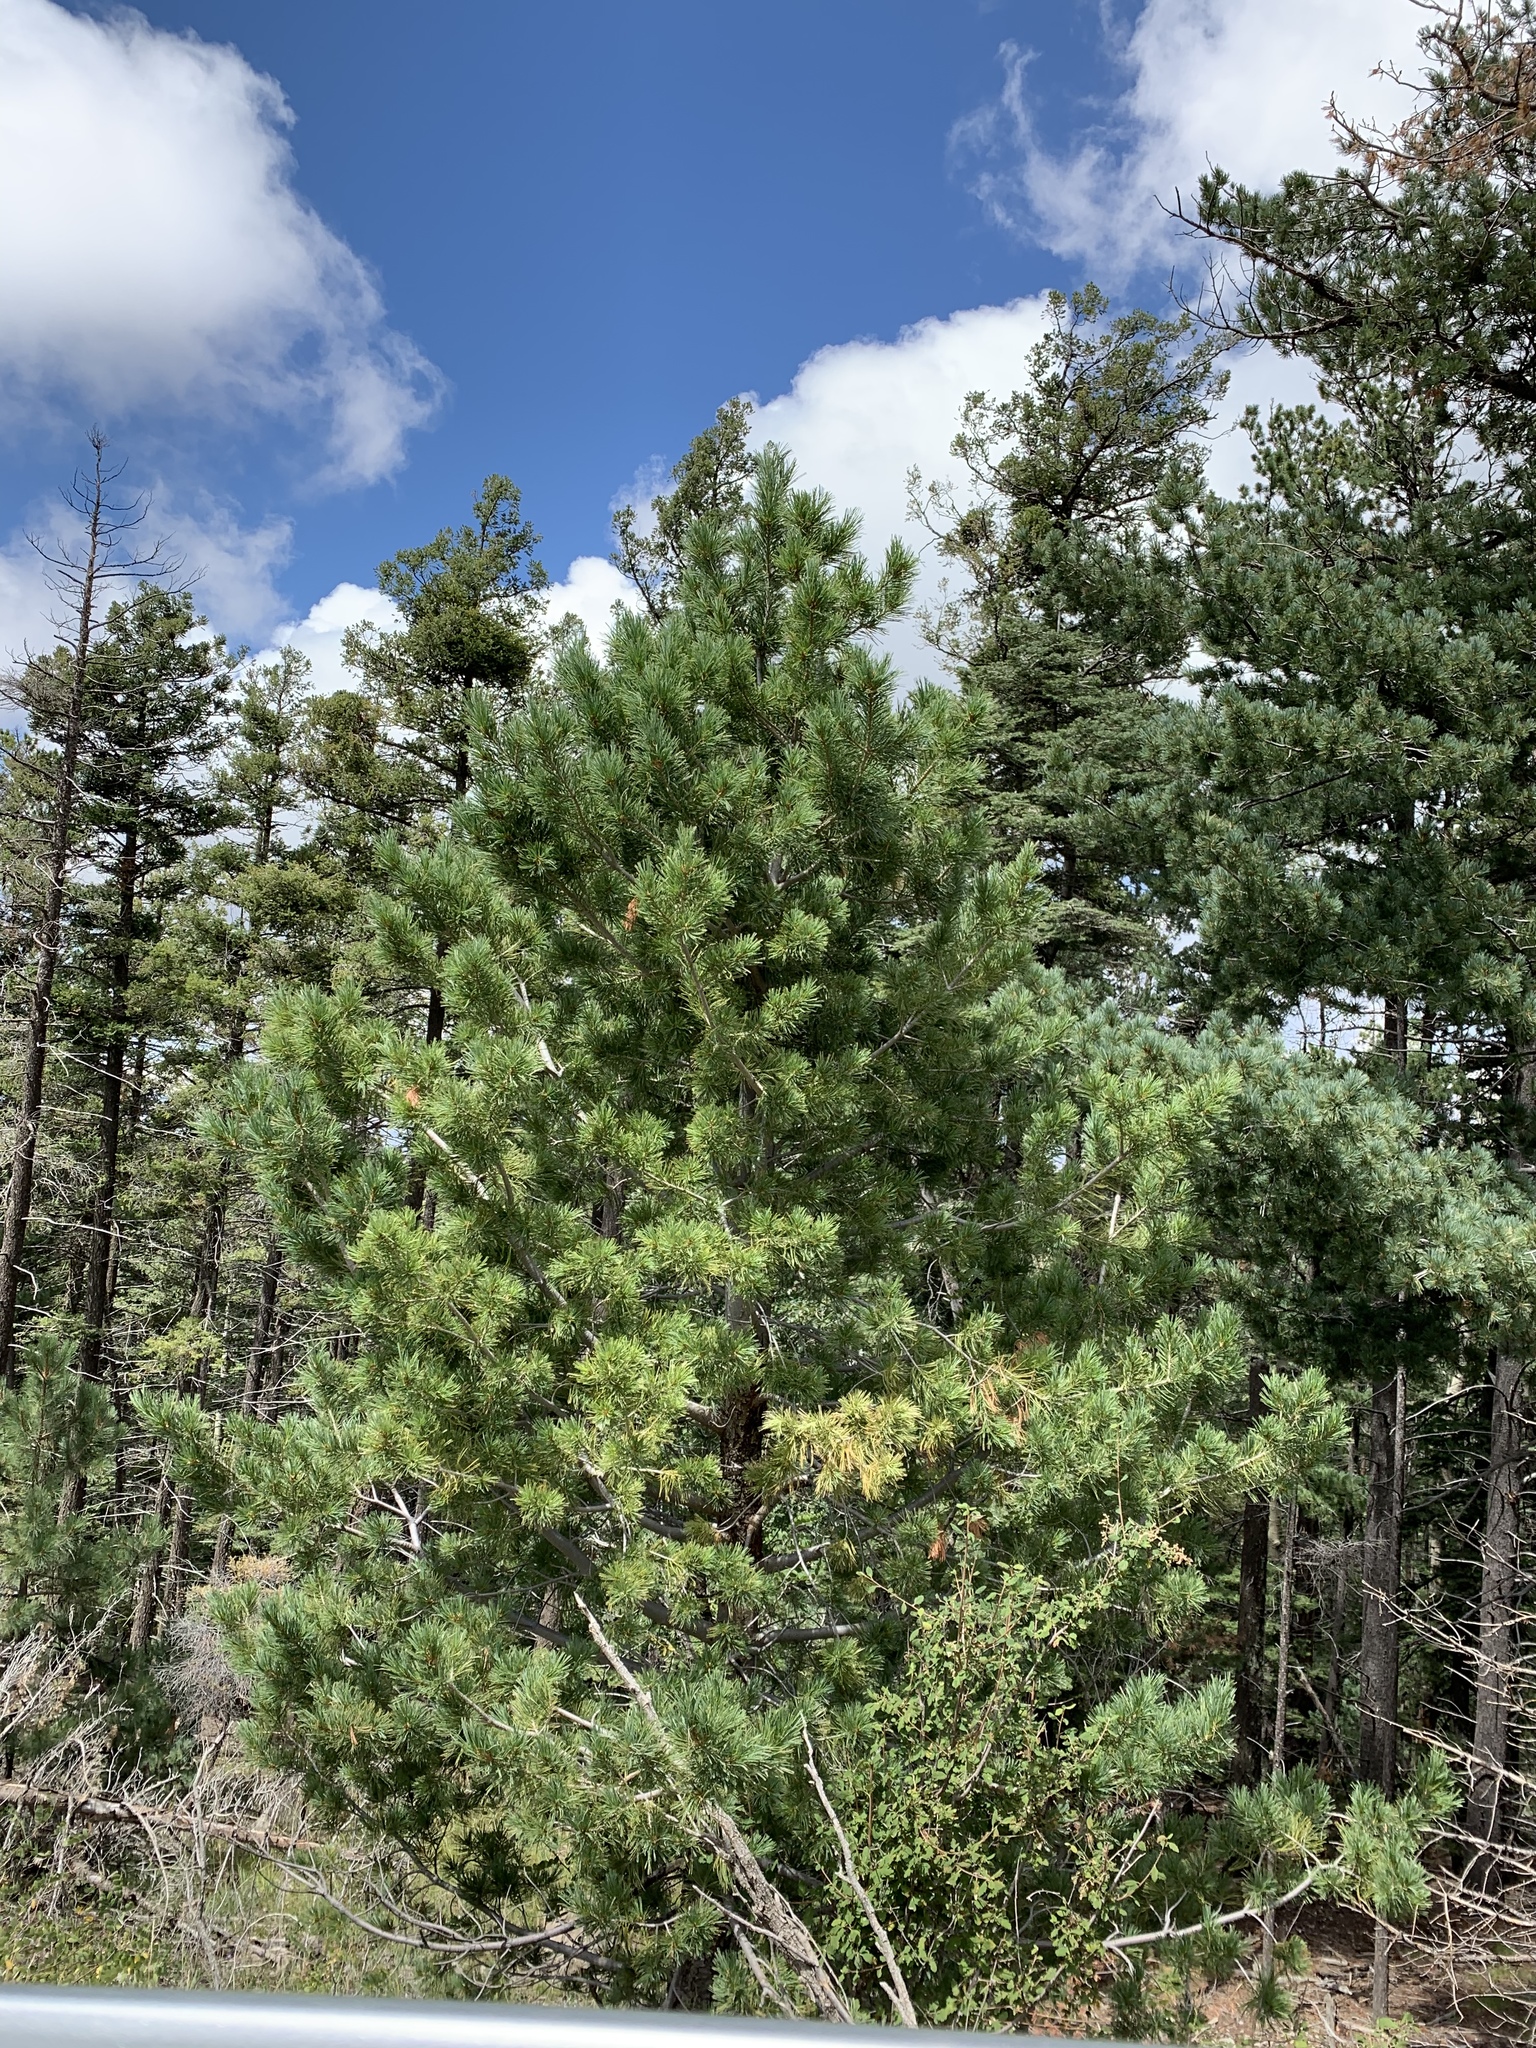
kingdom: Plantae
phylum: Tracheophyta
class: Pinopsida
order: Pinales
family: Pinaceae
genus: Pinus
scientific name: Pinus strobiformis
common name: Southwestern white pine
